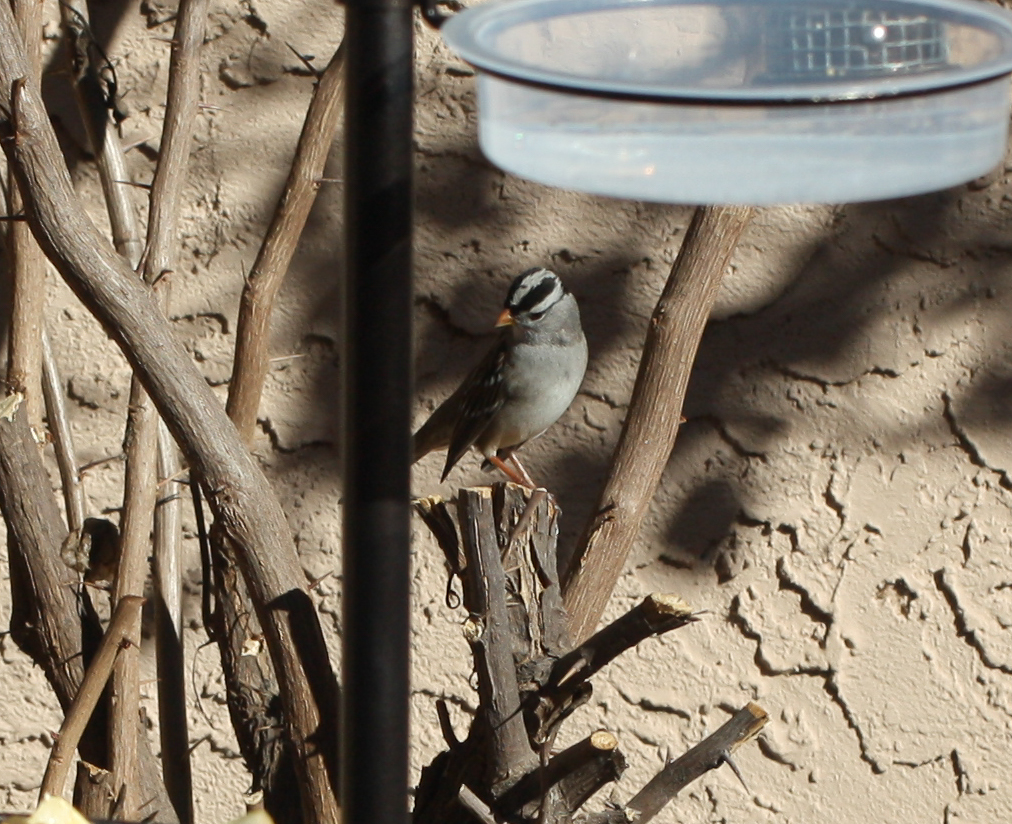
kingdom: Animalia
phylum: Chordata
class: Aves
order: Passeriformes
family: Passerellidae
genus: Zonotrichia
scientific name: Zonotrichia leucophrys
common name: White-crowned sparrow
